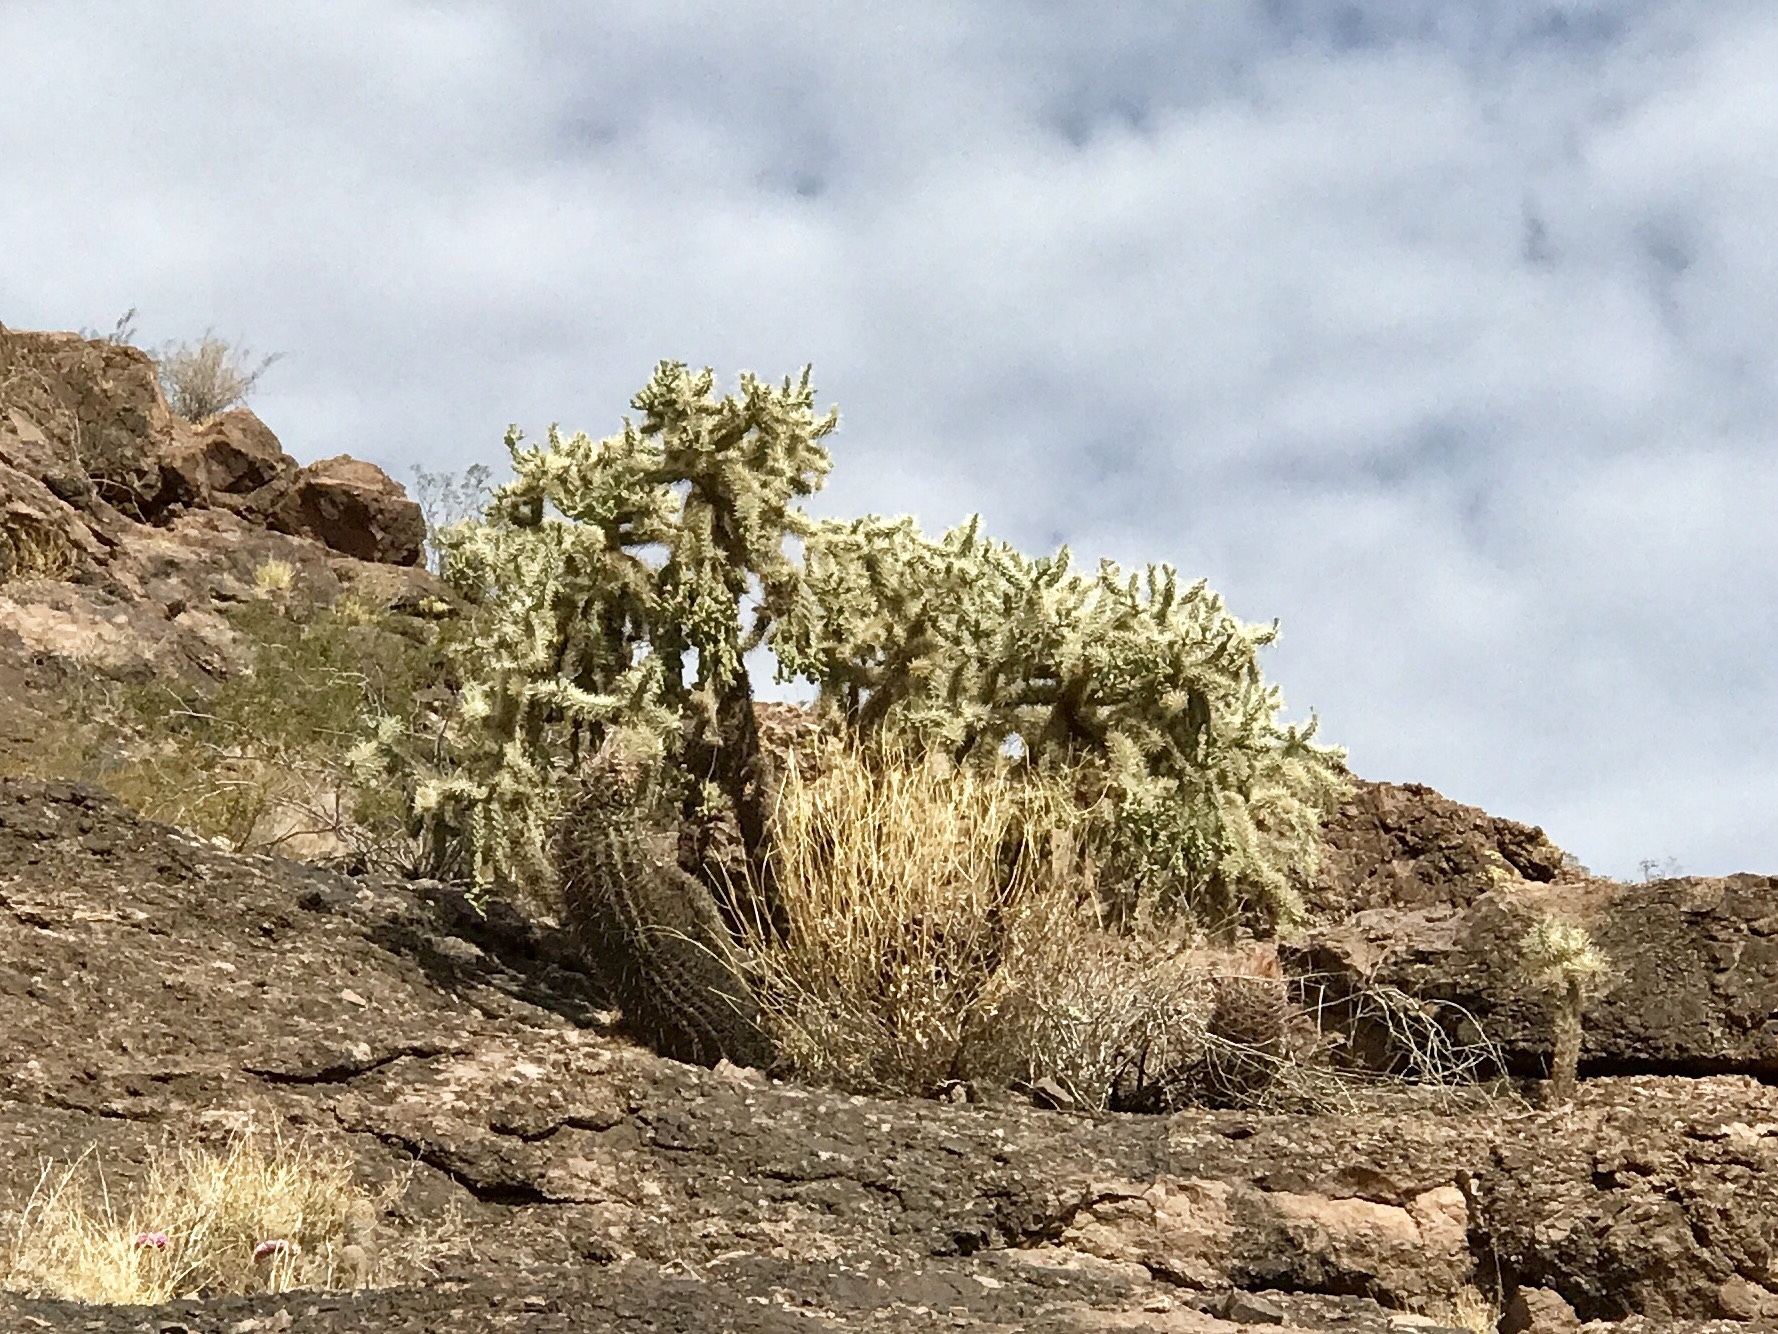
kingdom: Plantae
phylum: Tracheophyta
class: Magnoliopsida
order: Caryophyllales
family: Cactaceae
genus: Cylindropuntia
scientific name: Cylindropuntia fulgida
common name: Jumping cholla
